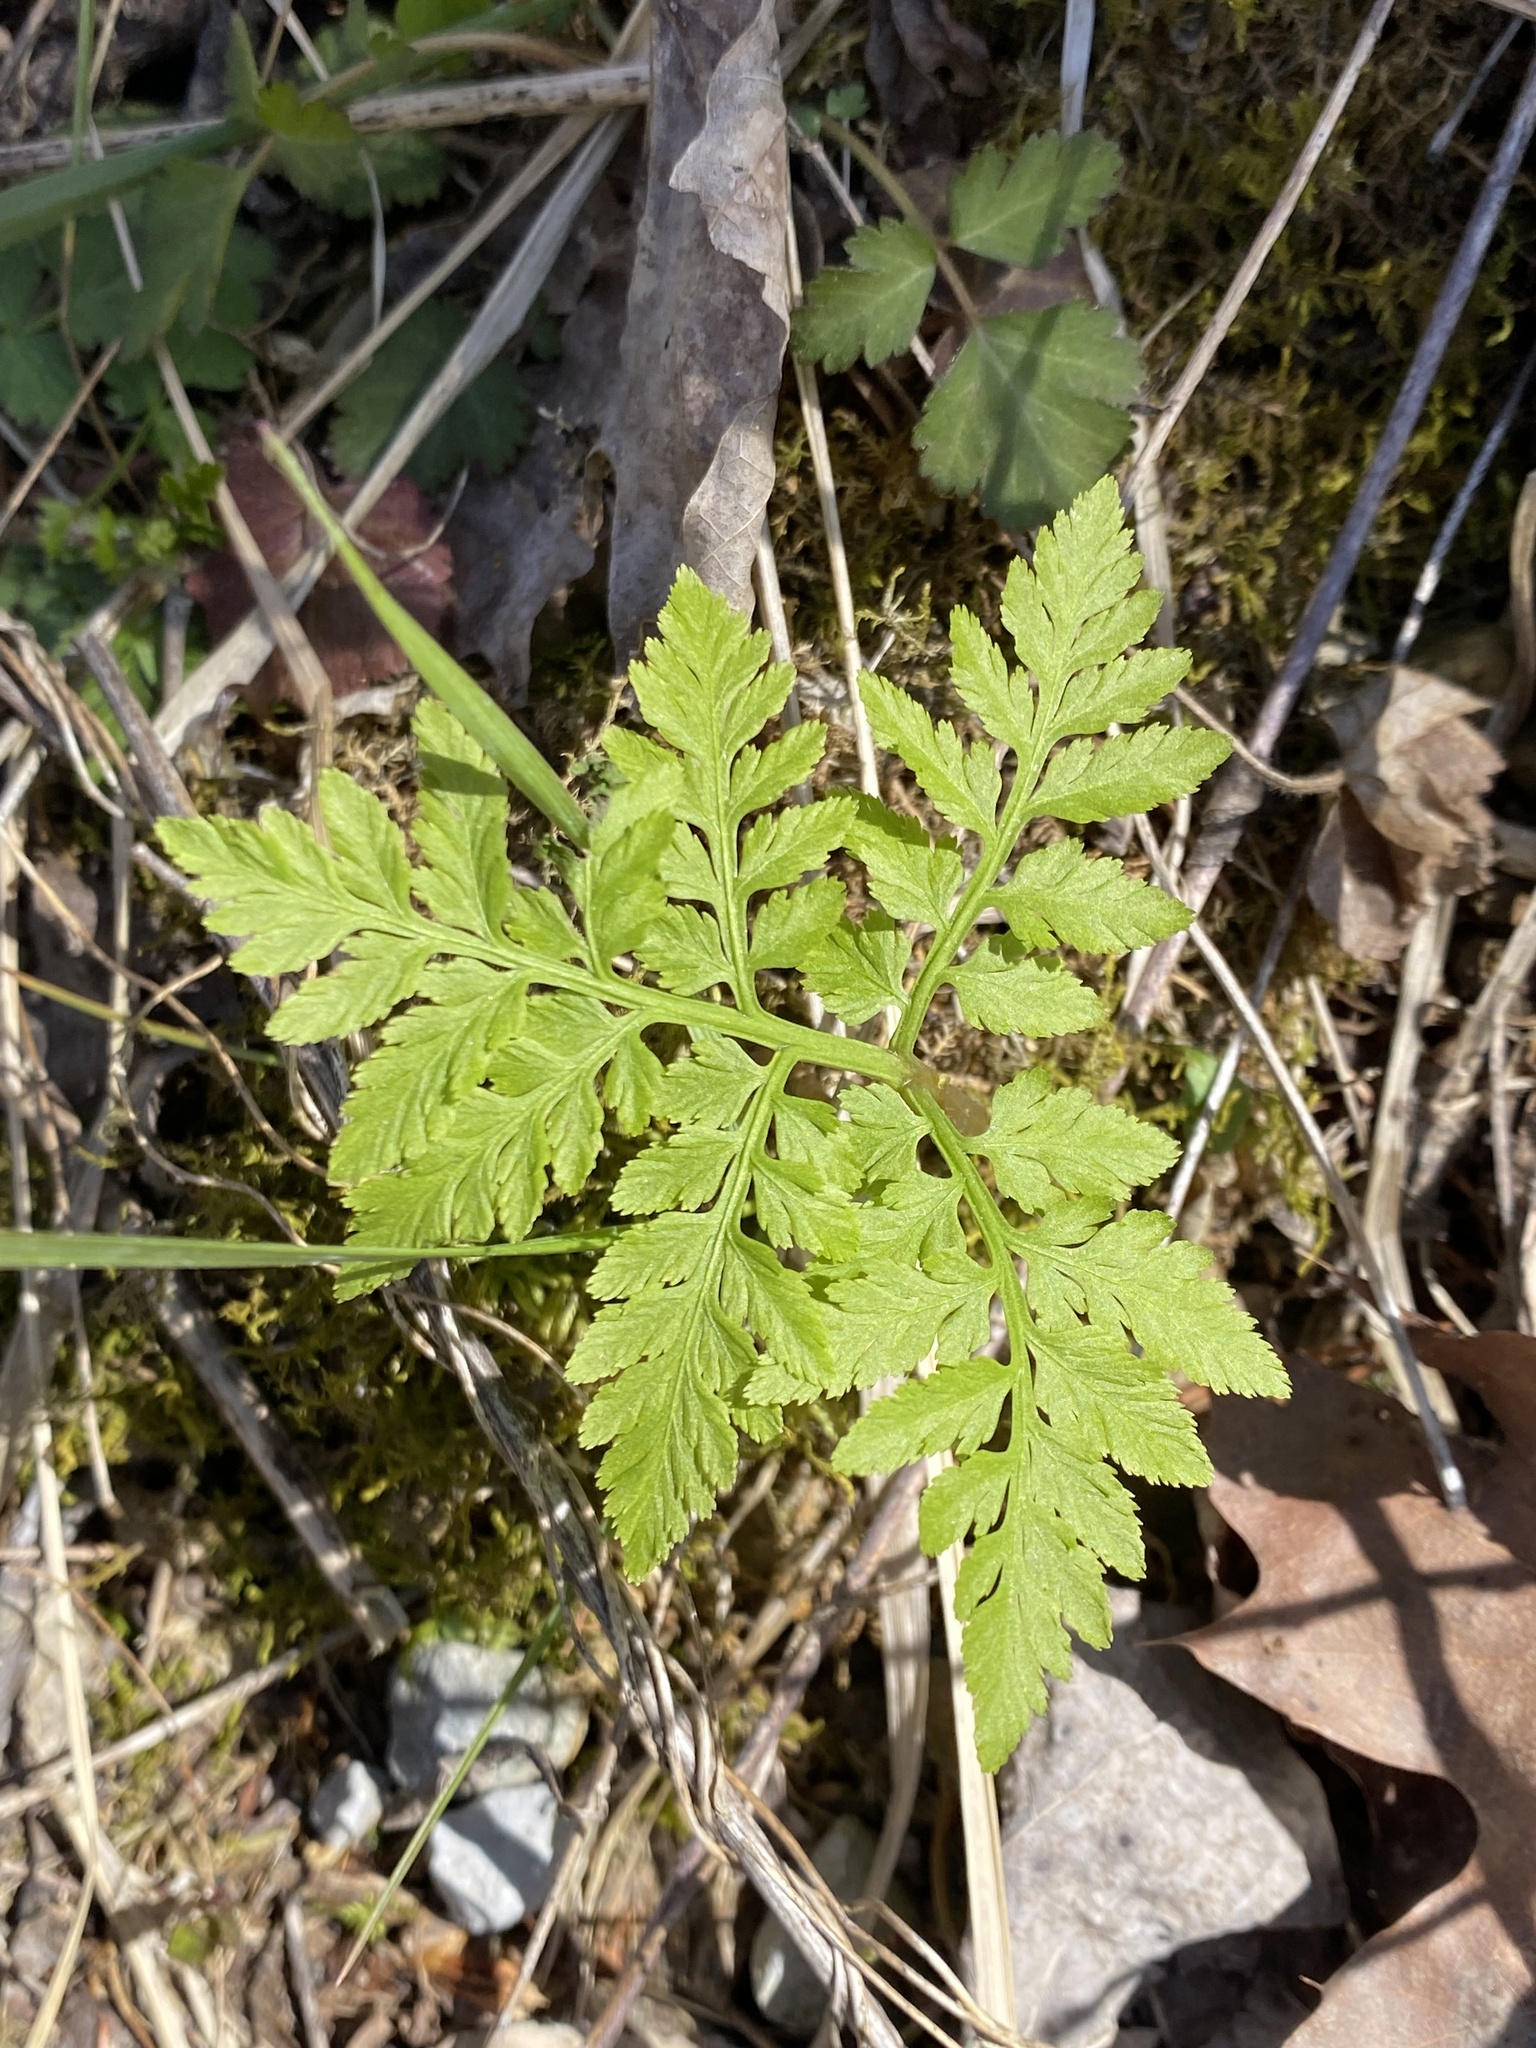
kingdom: Plantae
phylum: Tracheophyta
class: Polypodiopsida
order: Ophioglossales
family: Ophioglossaceae
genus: Botrypus
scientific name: Botrypus virginianus
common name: Common grapefern
